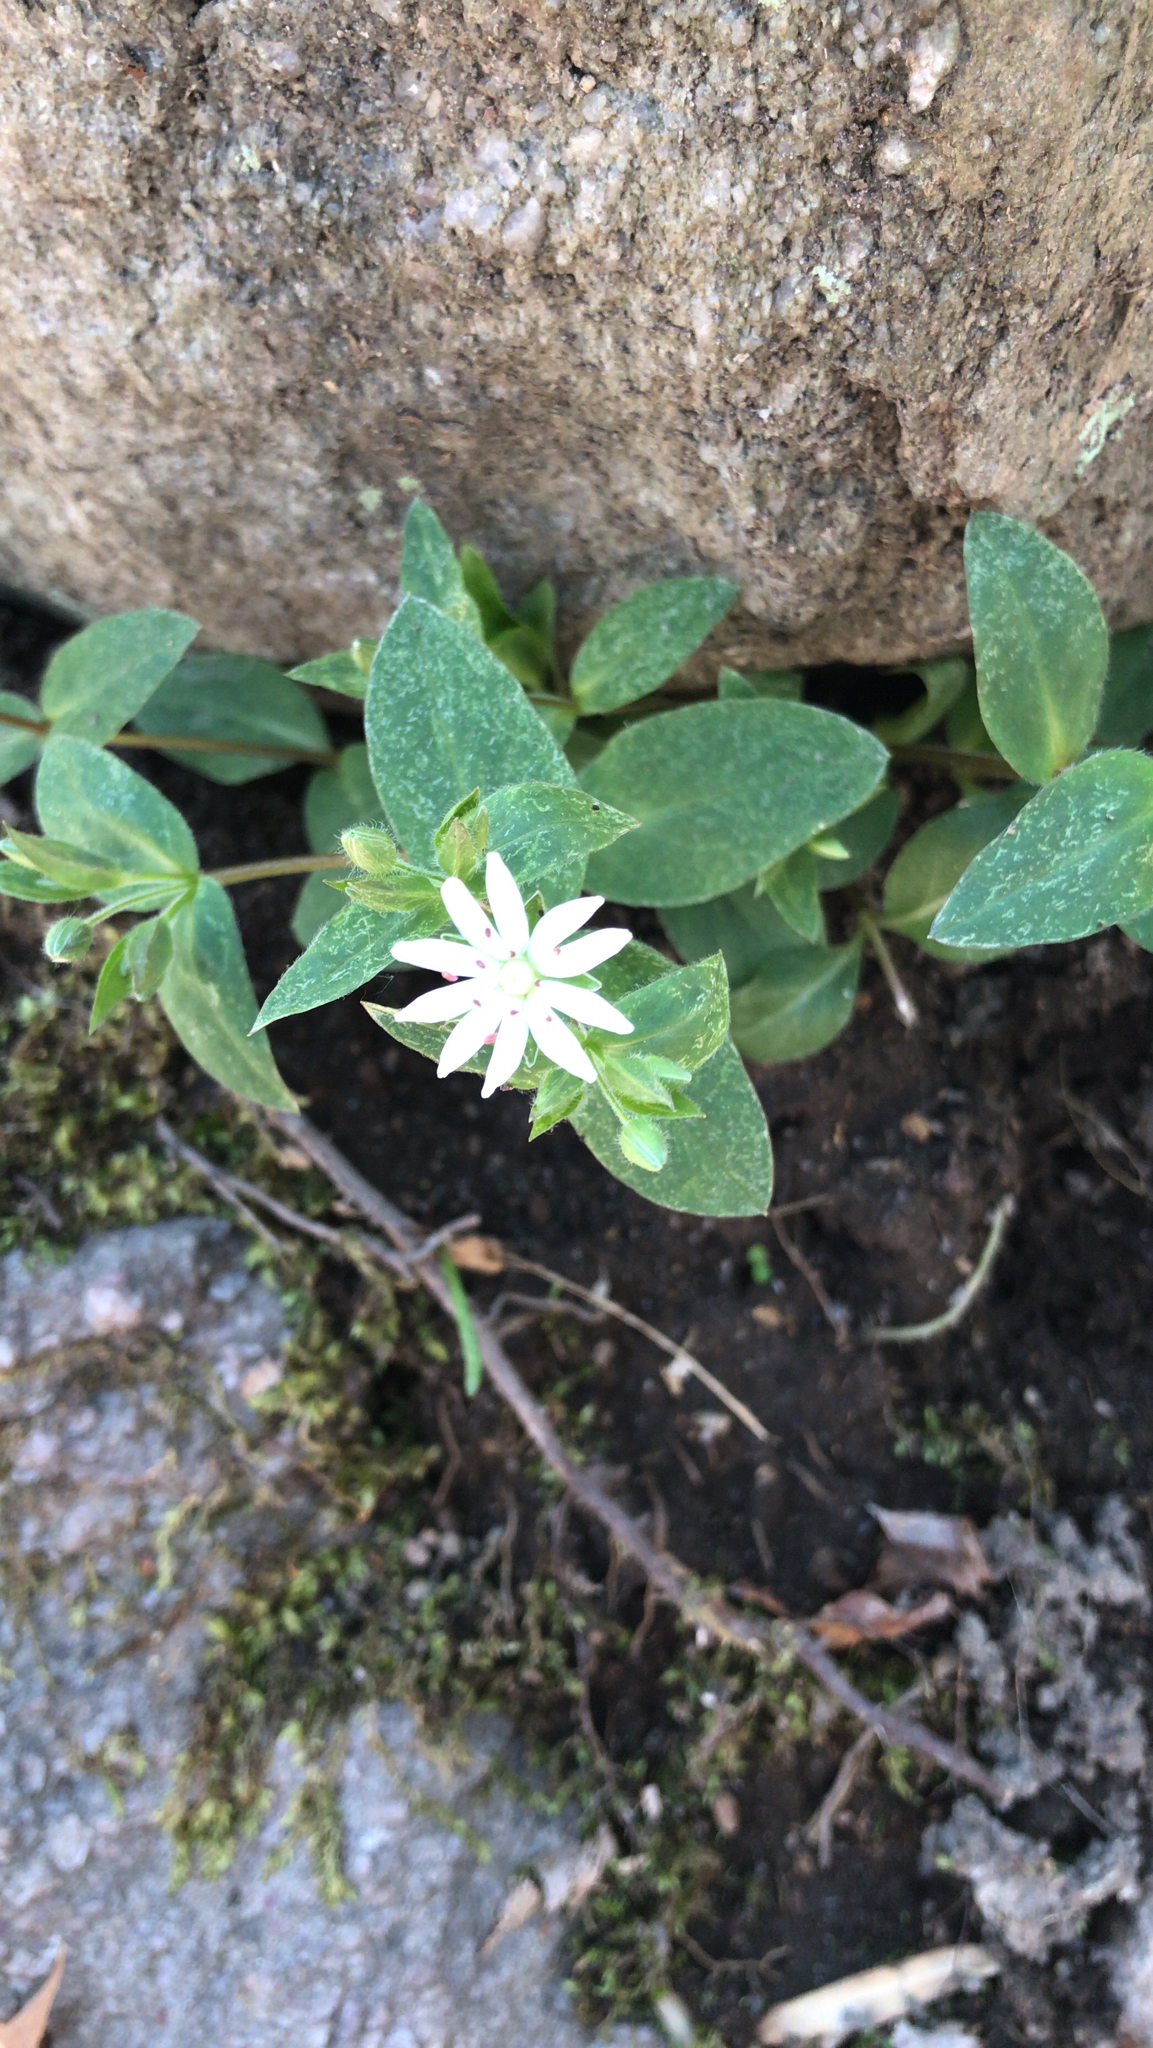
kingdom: Plantae
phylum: Tracheophyta
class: Magnoliopsida
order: Caryophyllales
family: Caryophyllaceae
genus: Stellaria
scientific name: Stellaria pubera
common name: Star chickweed
